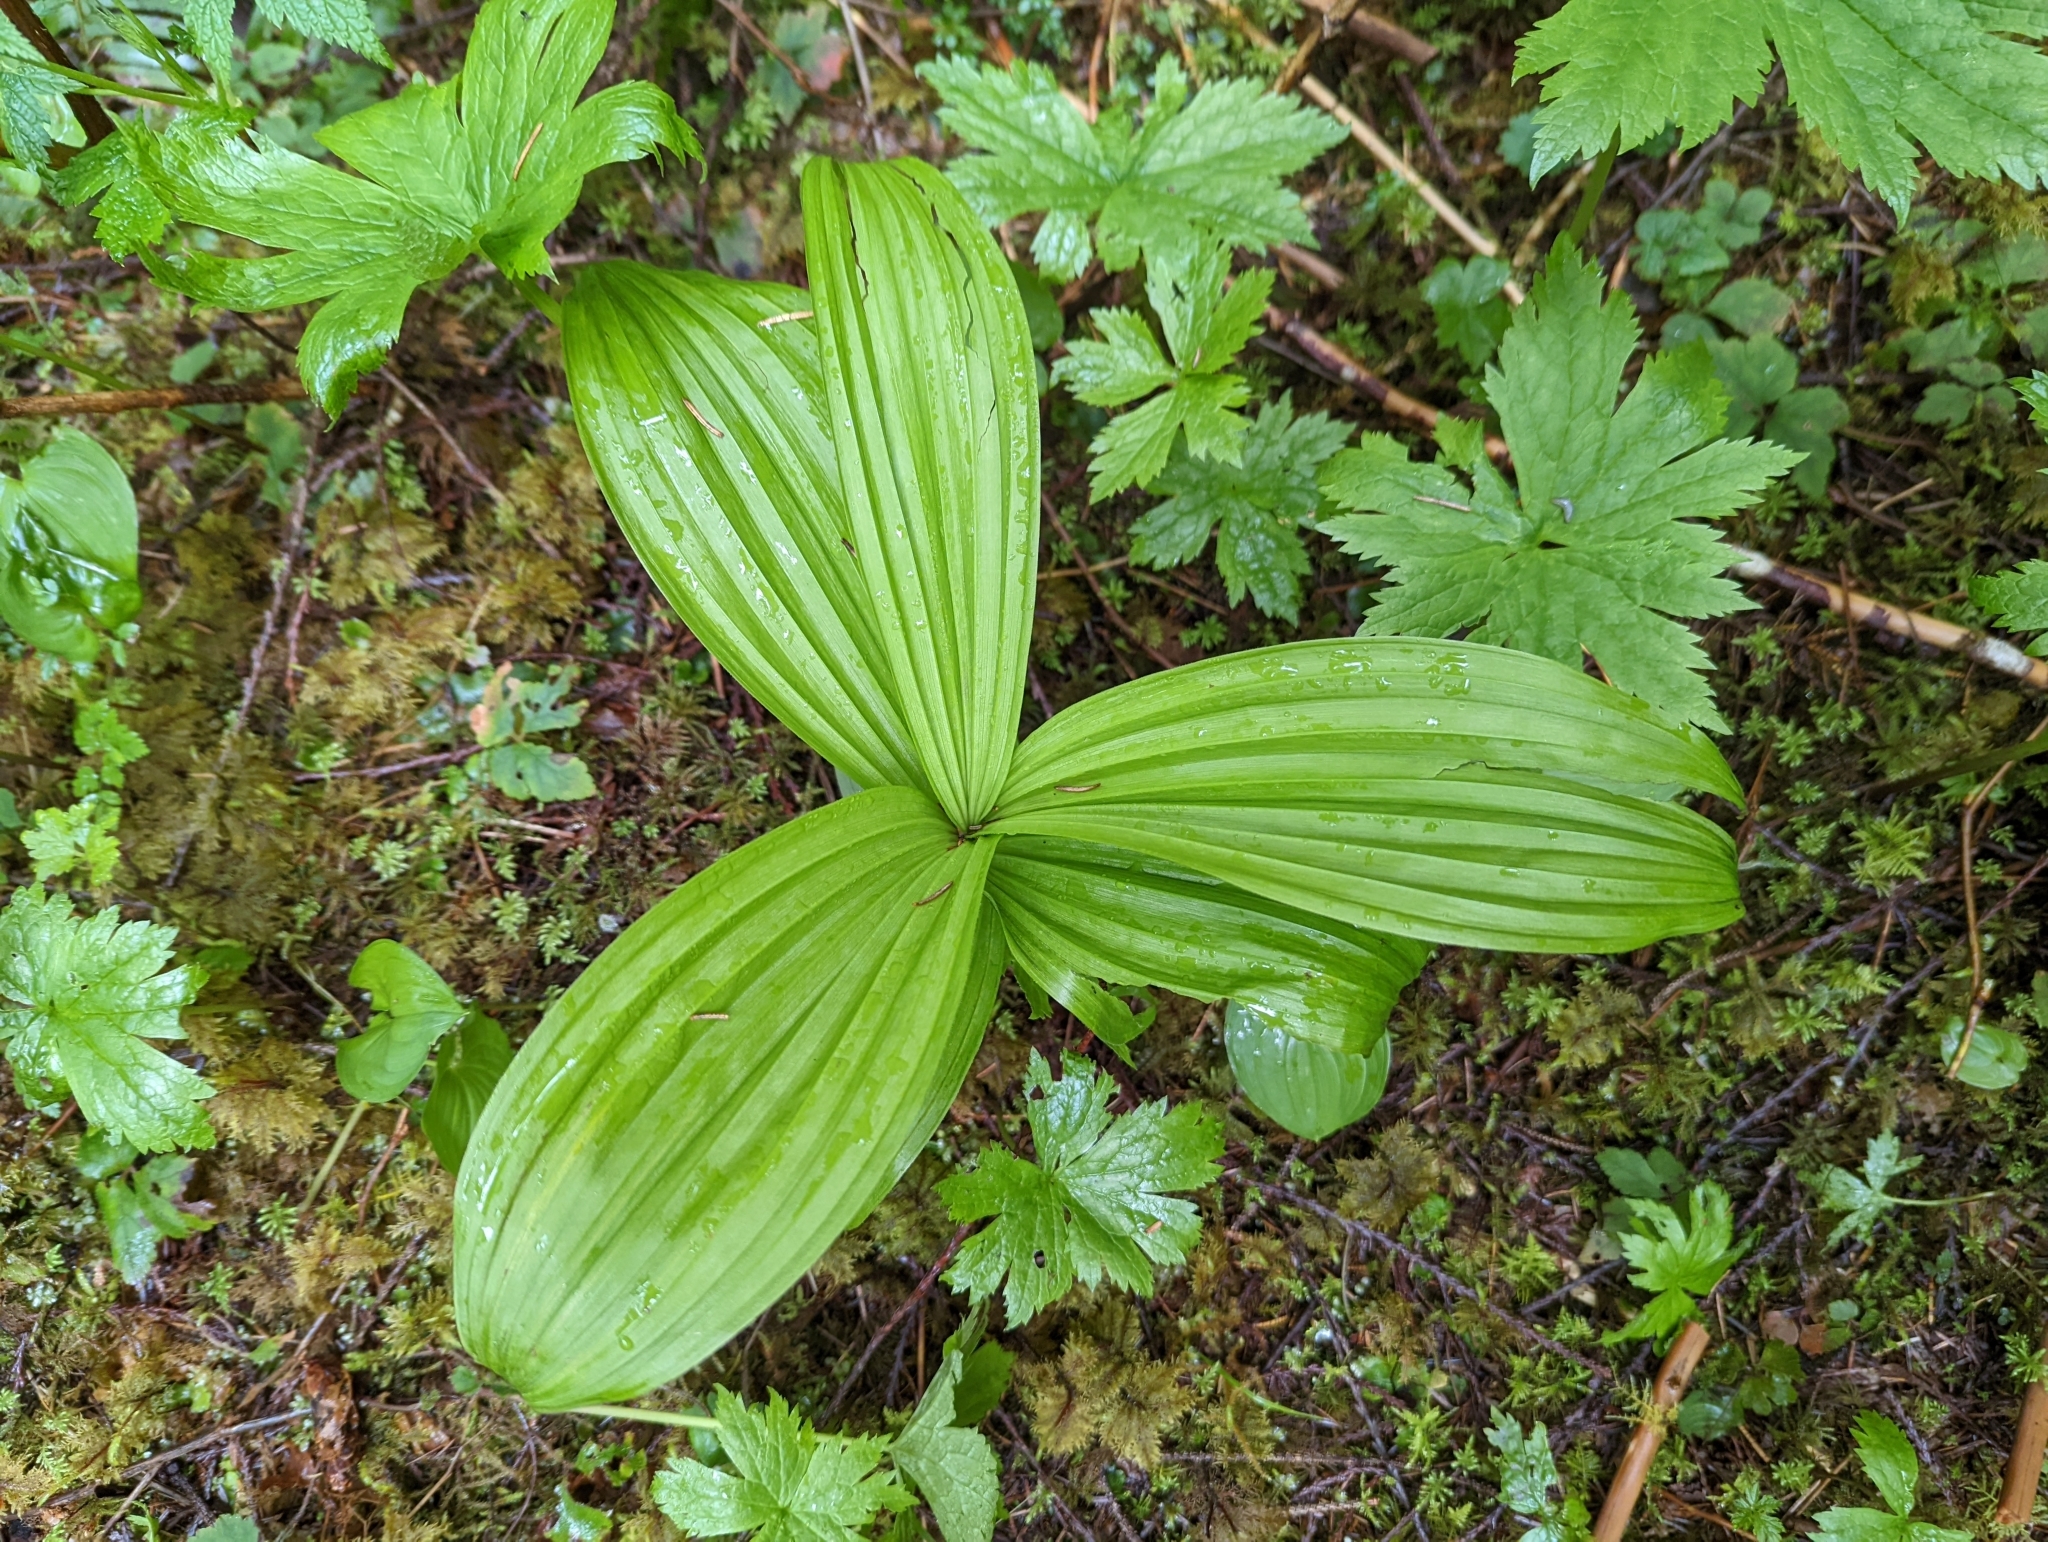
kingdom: Plantae
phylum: Tracheophyta
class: Liliopsida
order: Liliales
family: Melanthiaceae
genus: Veratrum
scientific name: Veratrum viride
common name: American false hellebore
